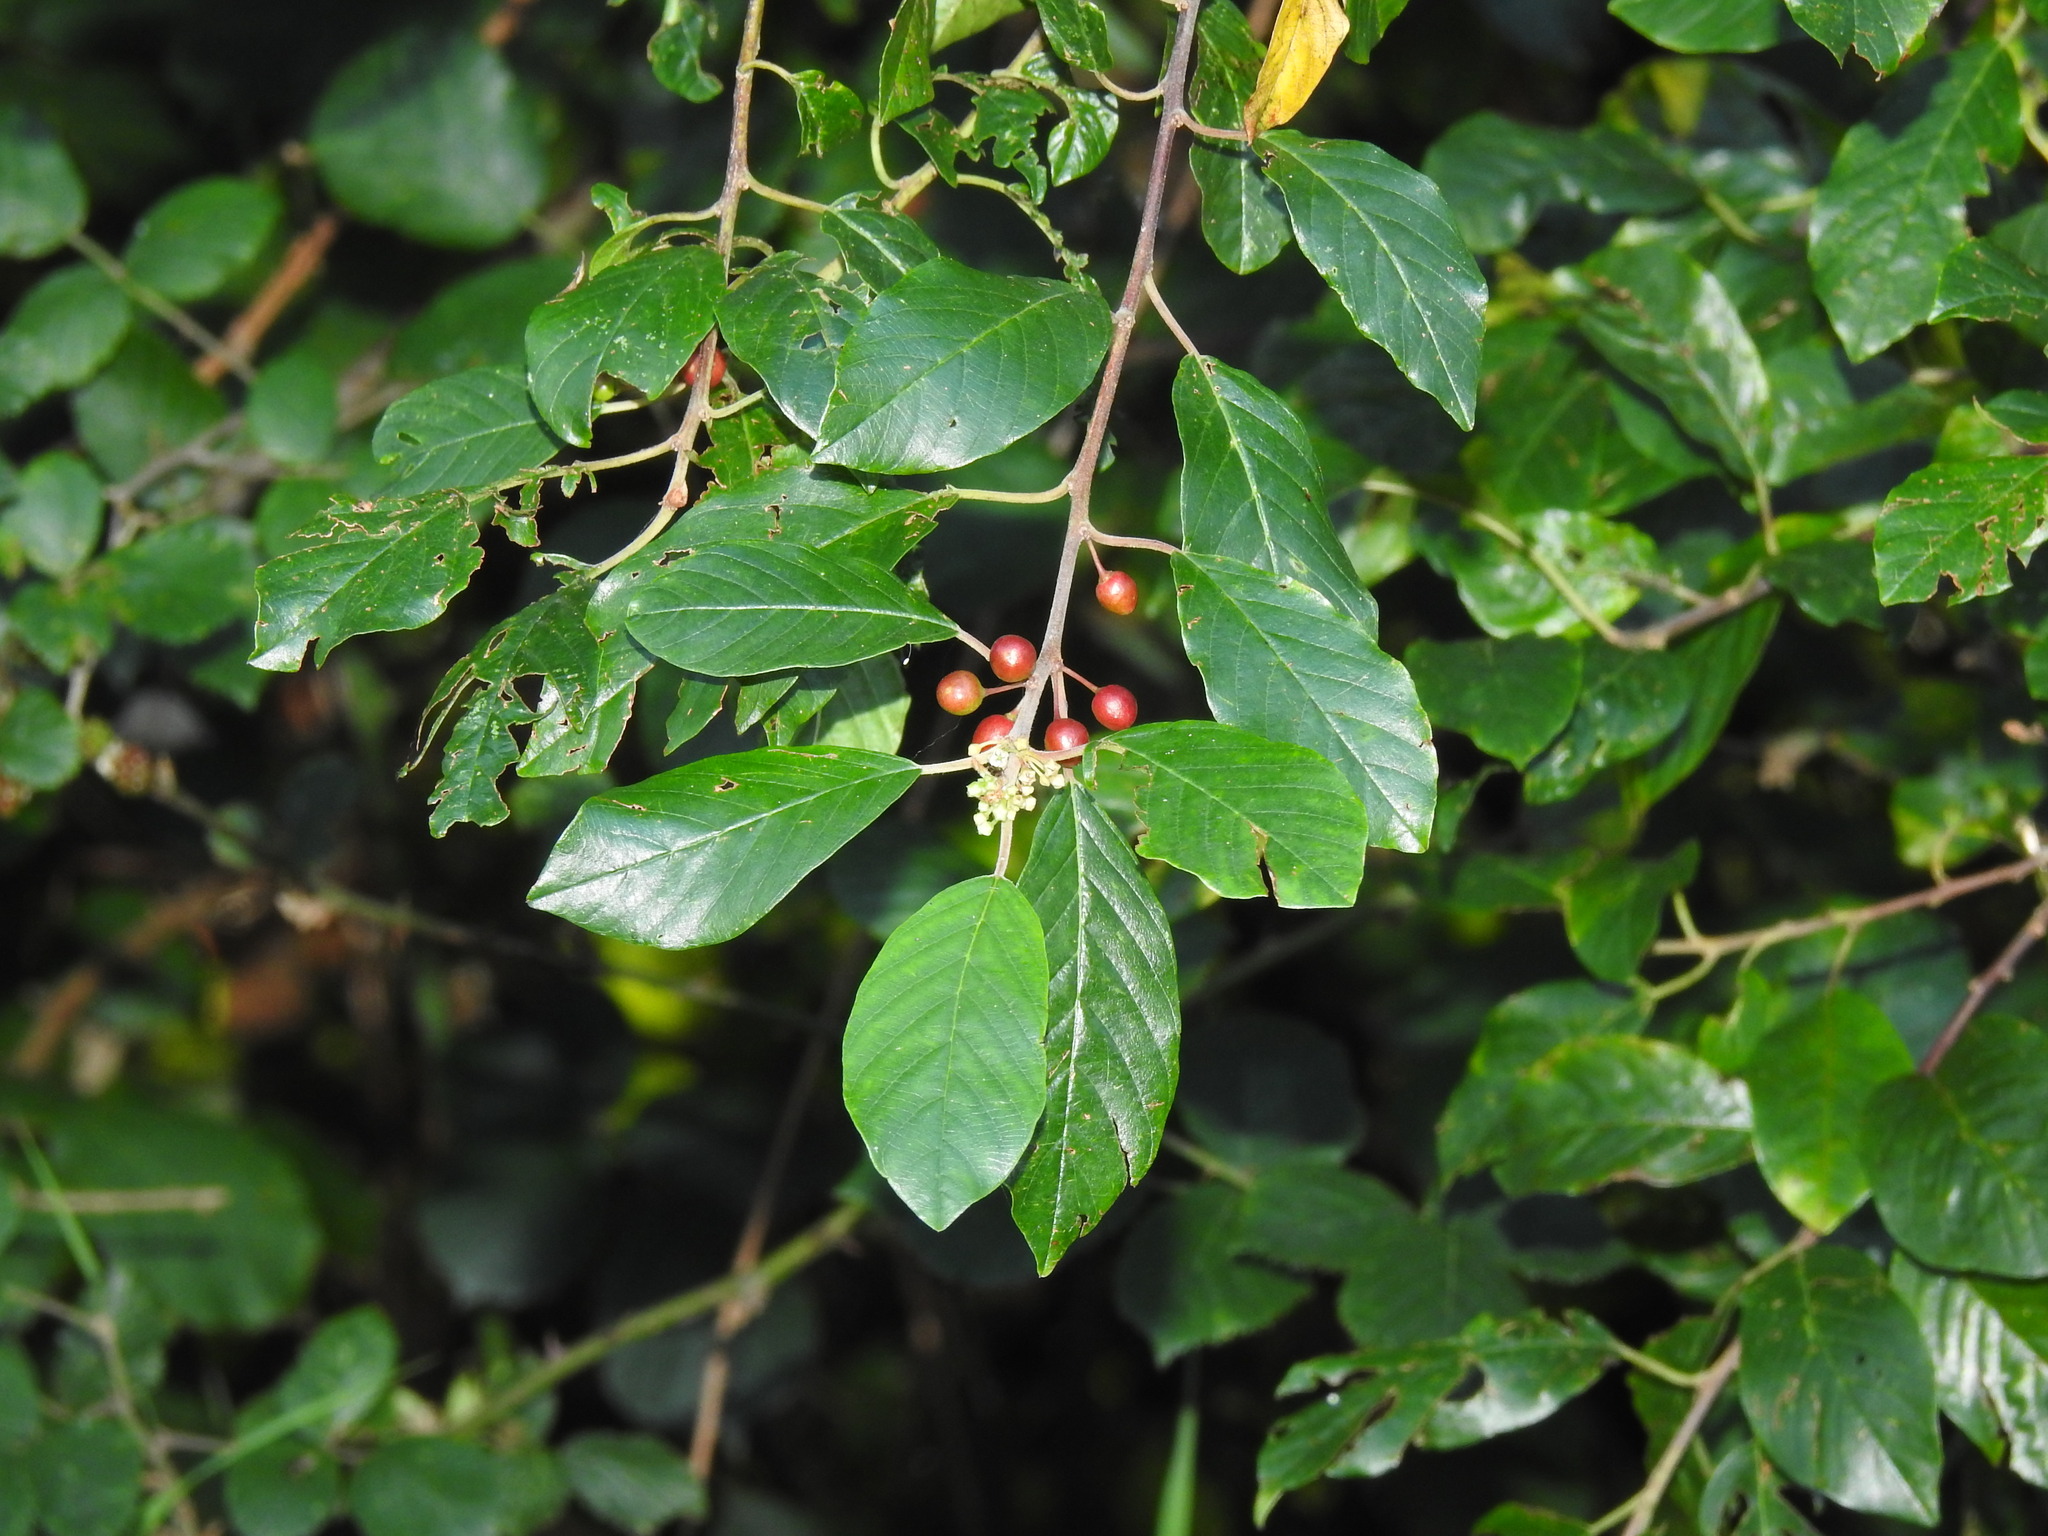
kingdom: Plantae
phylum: Tracheophyta
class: Magnoliopsida
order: Rosales
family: Rhamnaceae
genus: Frangula
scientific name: Frangula alnus
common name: Alder buckthorn
